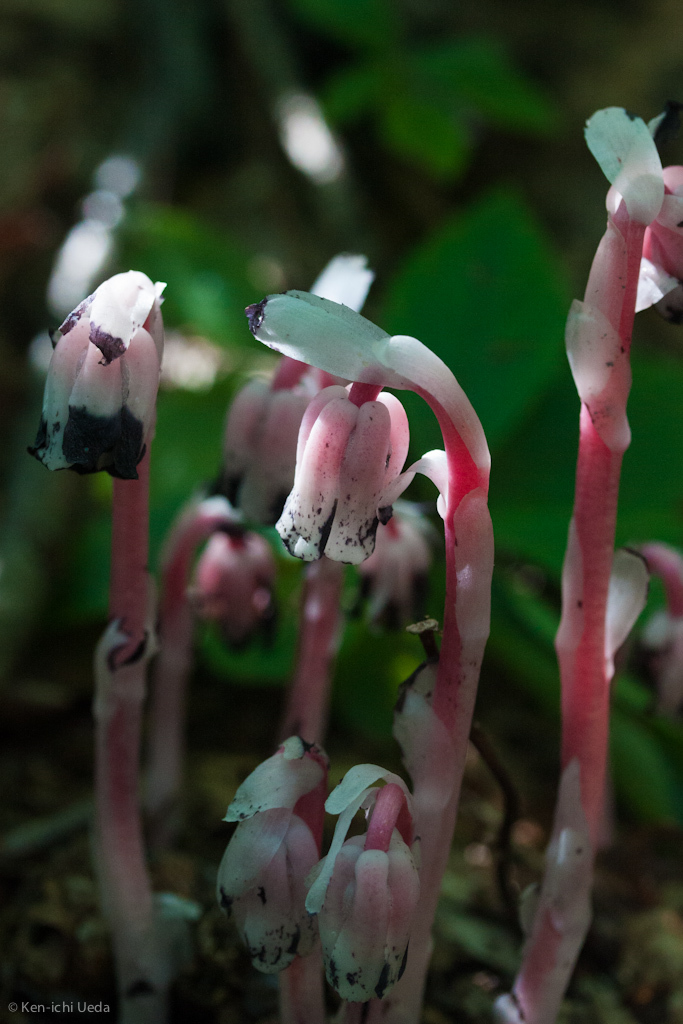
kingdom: Plantae
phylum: Tracheophyta
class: Magnoliopsida
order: Ericales
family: Ericaceae
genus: Monotropa
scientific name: Monotropa uniflora
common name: Convulsion root
